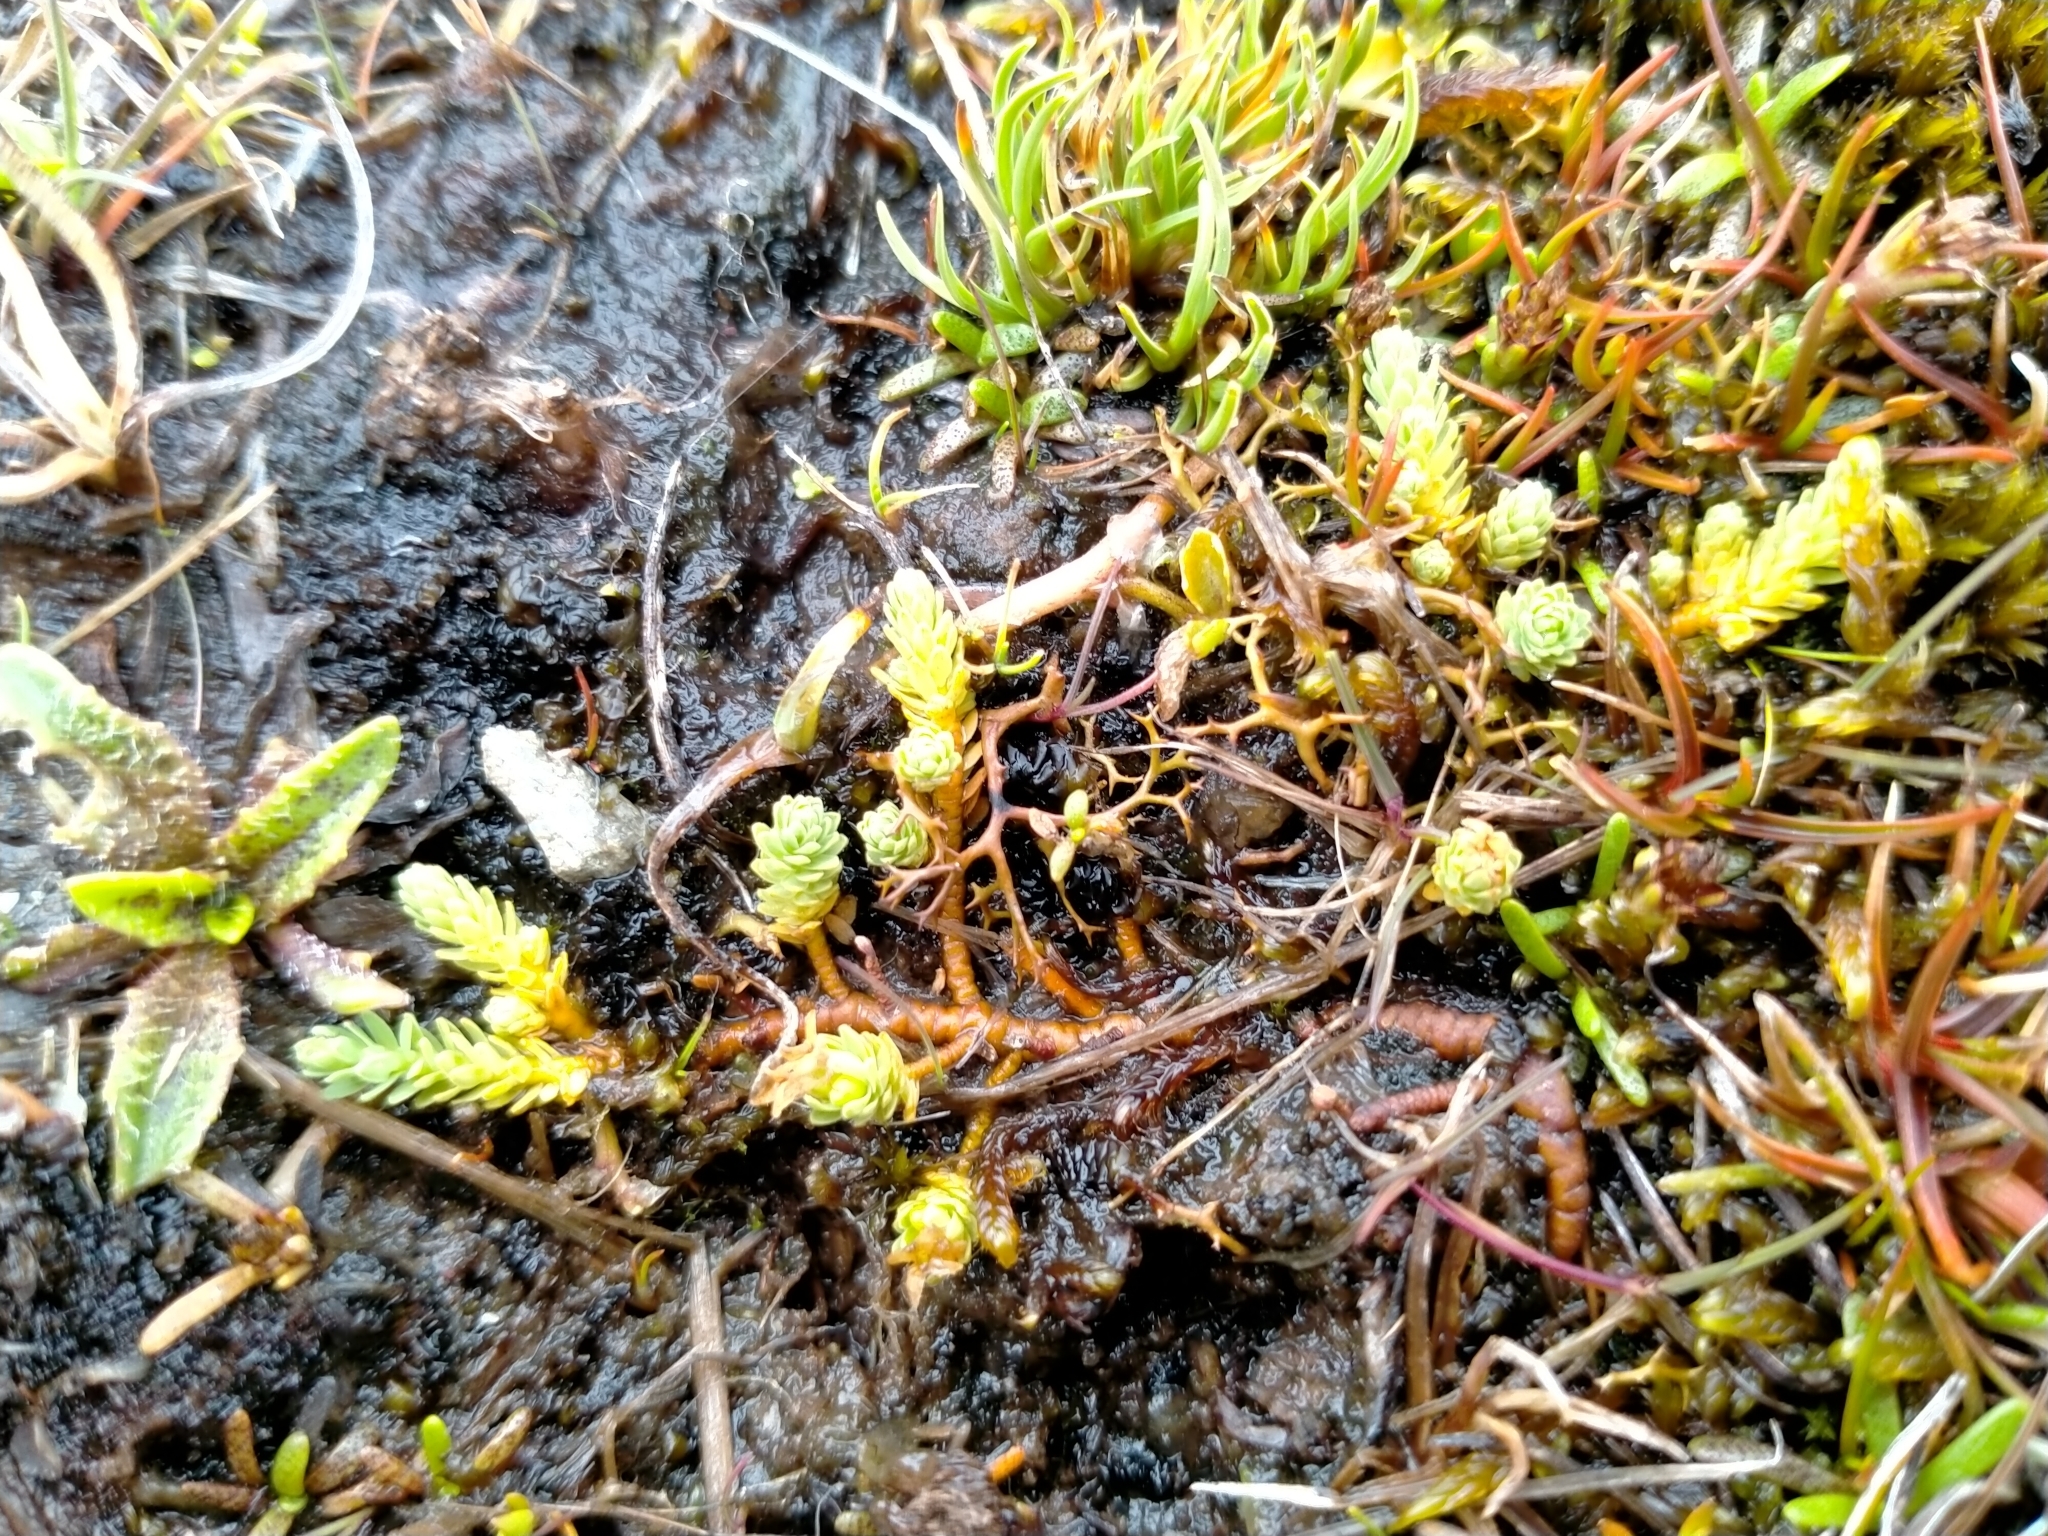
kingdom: Plantae
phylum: Tracheophyta
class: Magnoliopsida
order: Malvales
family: Thymelaeaceae
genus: Kelleria
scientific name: Kelleria paludosa
